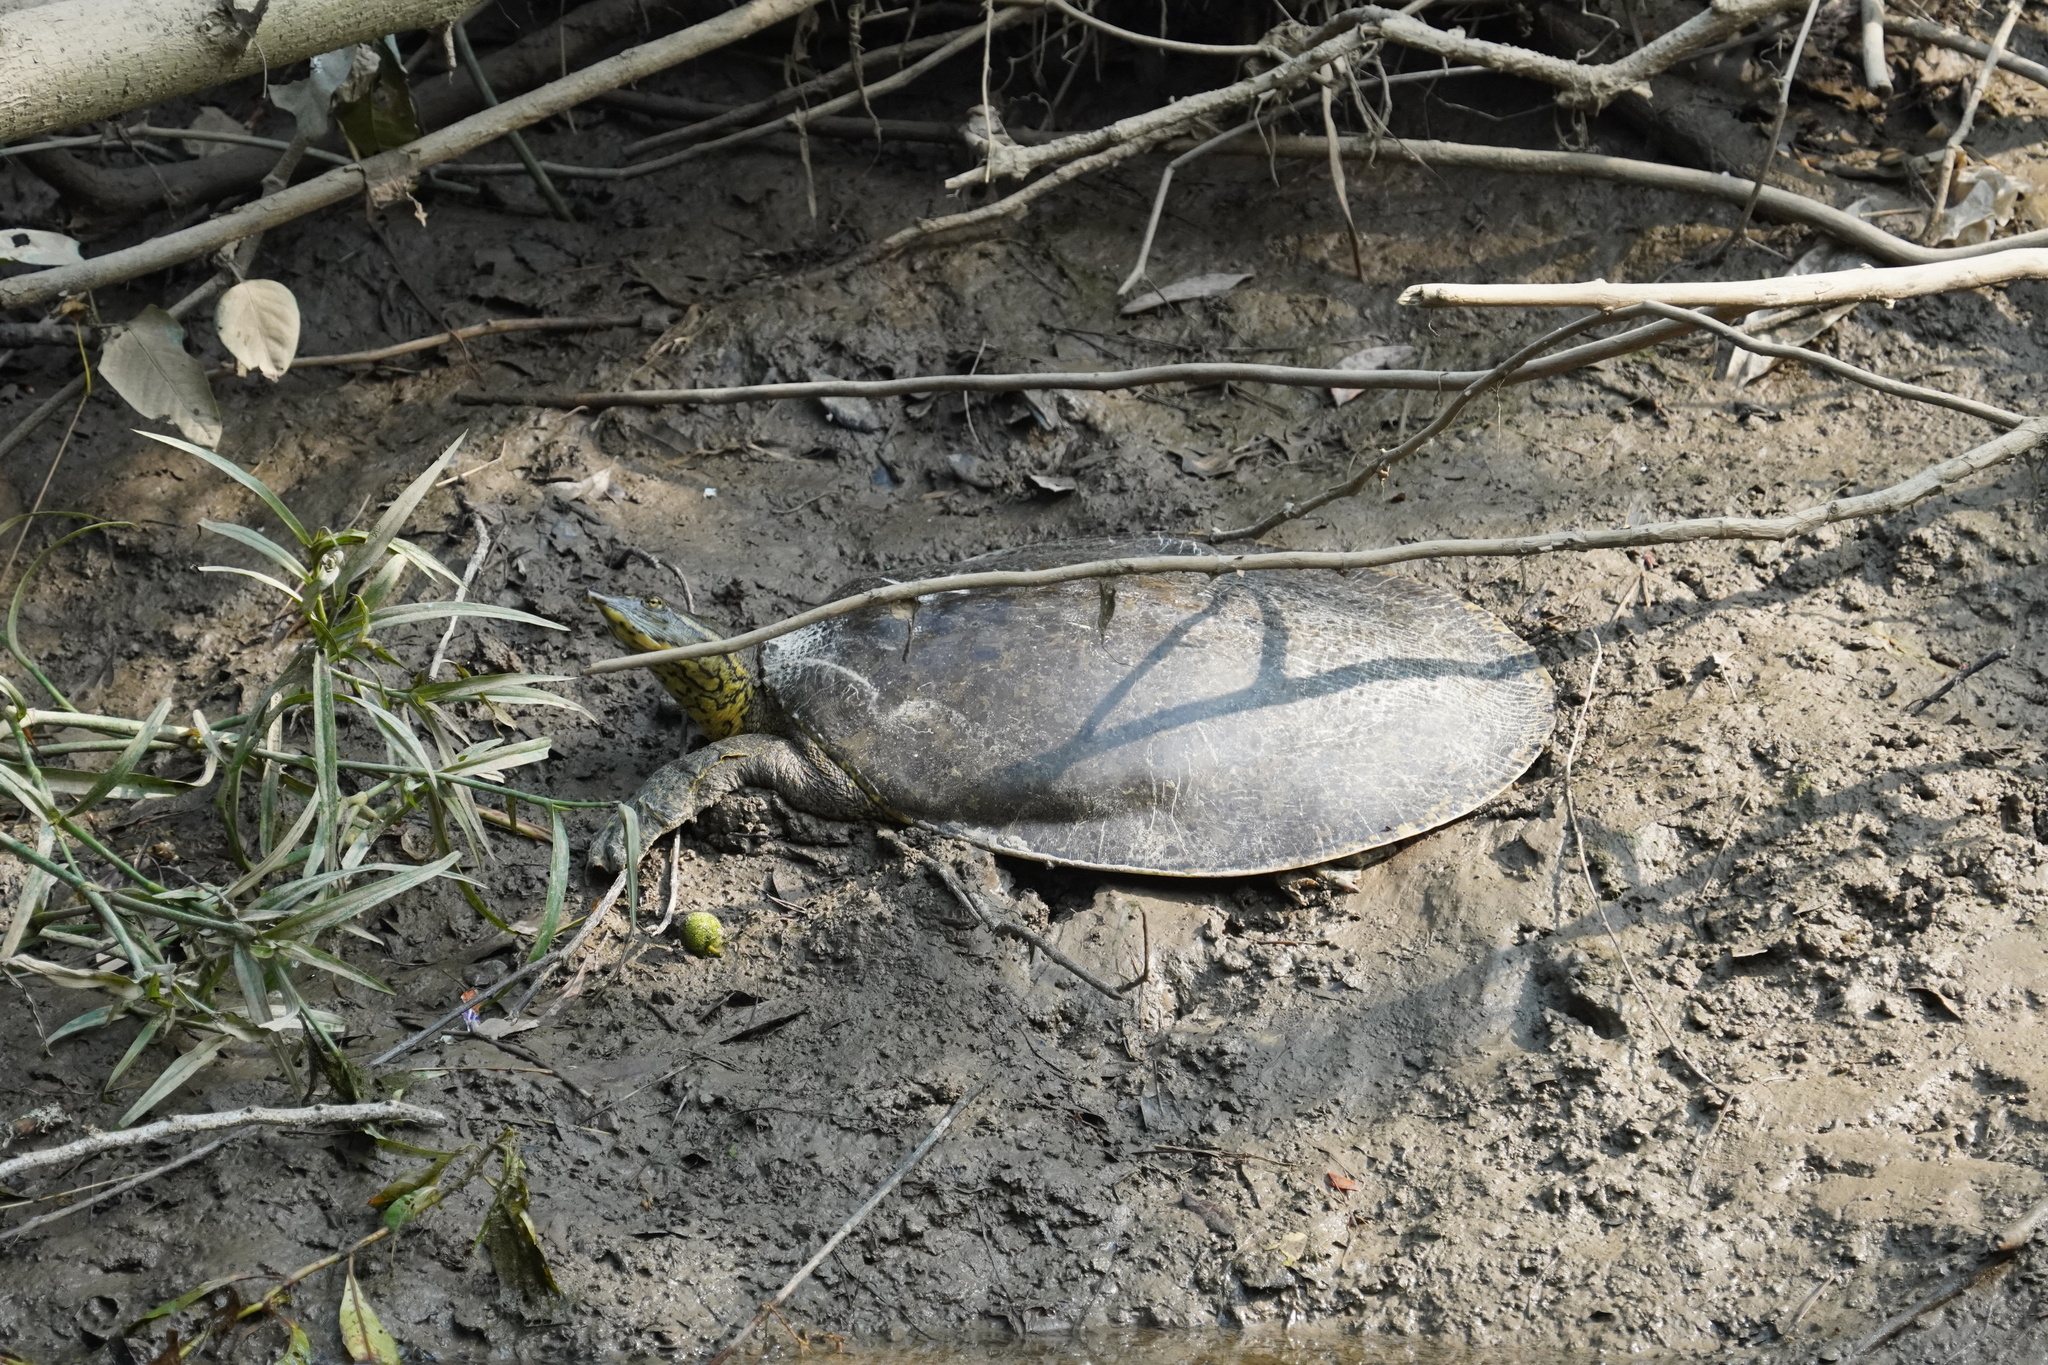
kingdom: Animalia
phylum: Chordata
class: Testudines
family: Trionychidae
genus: Apalone
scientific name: Apalone spinifera
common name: Spiny softshell turtle
